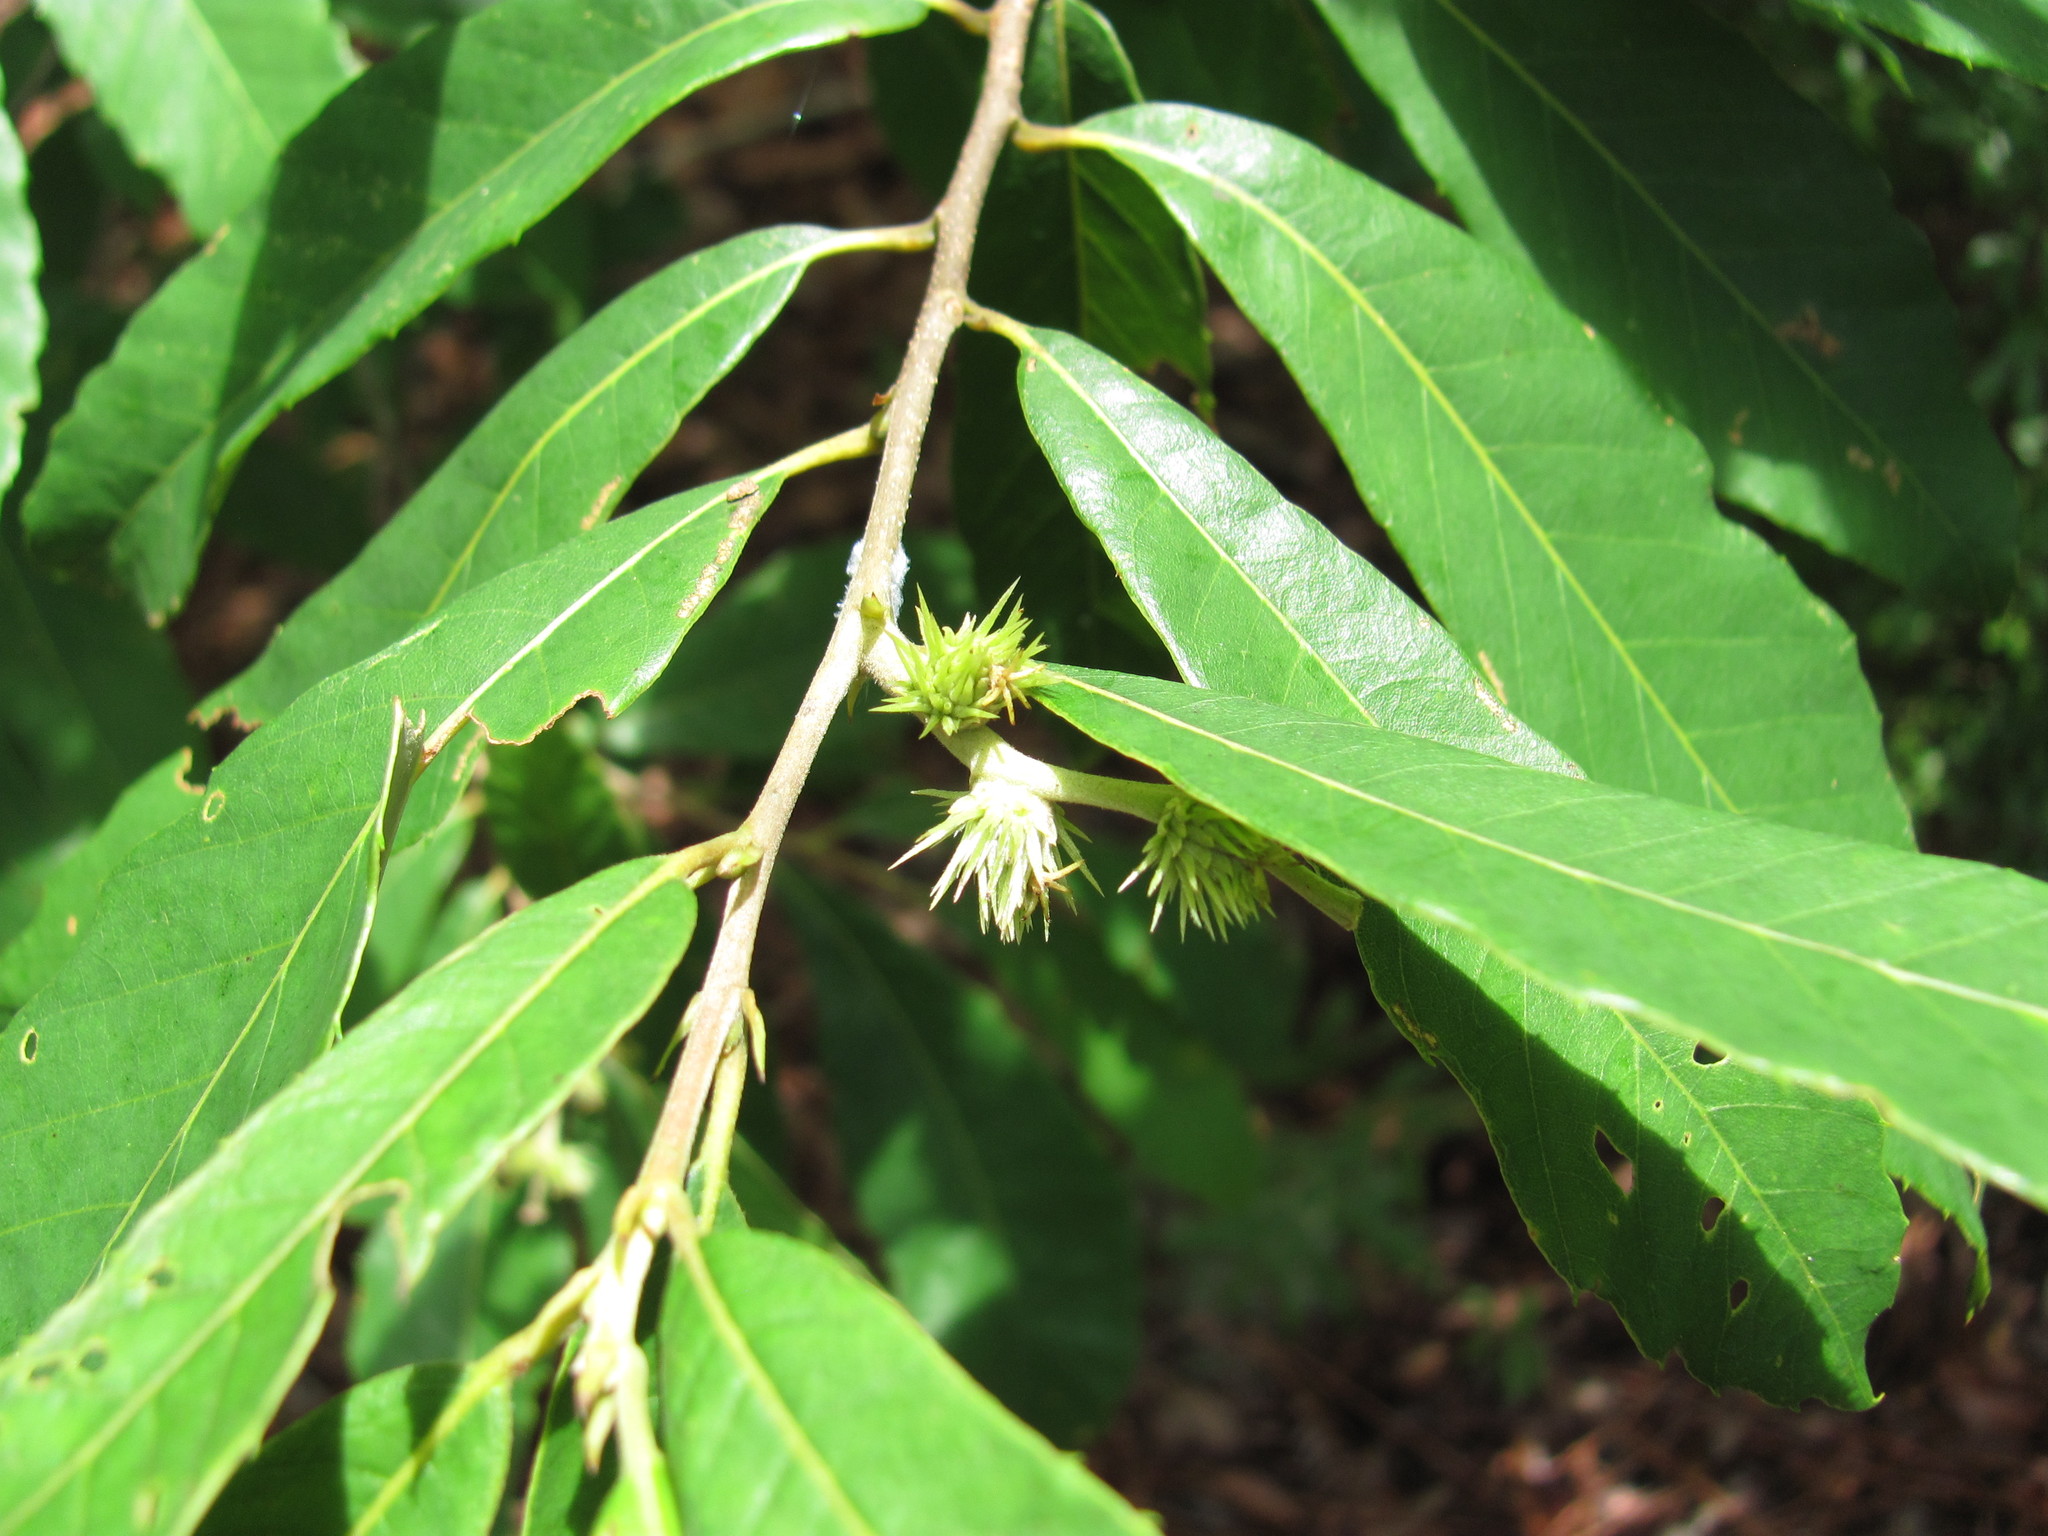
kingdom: Plantae
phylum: Tracheophyta
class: Magnoliopsida
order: Fagales
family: Fagaceae
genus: Castanea
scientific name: Castanea pumila
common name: Chinkapin
